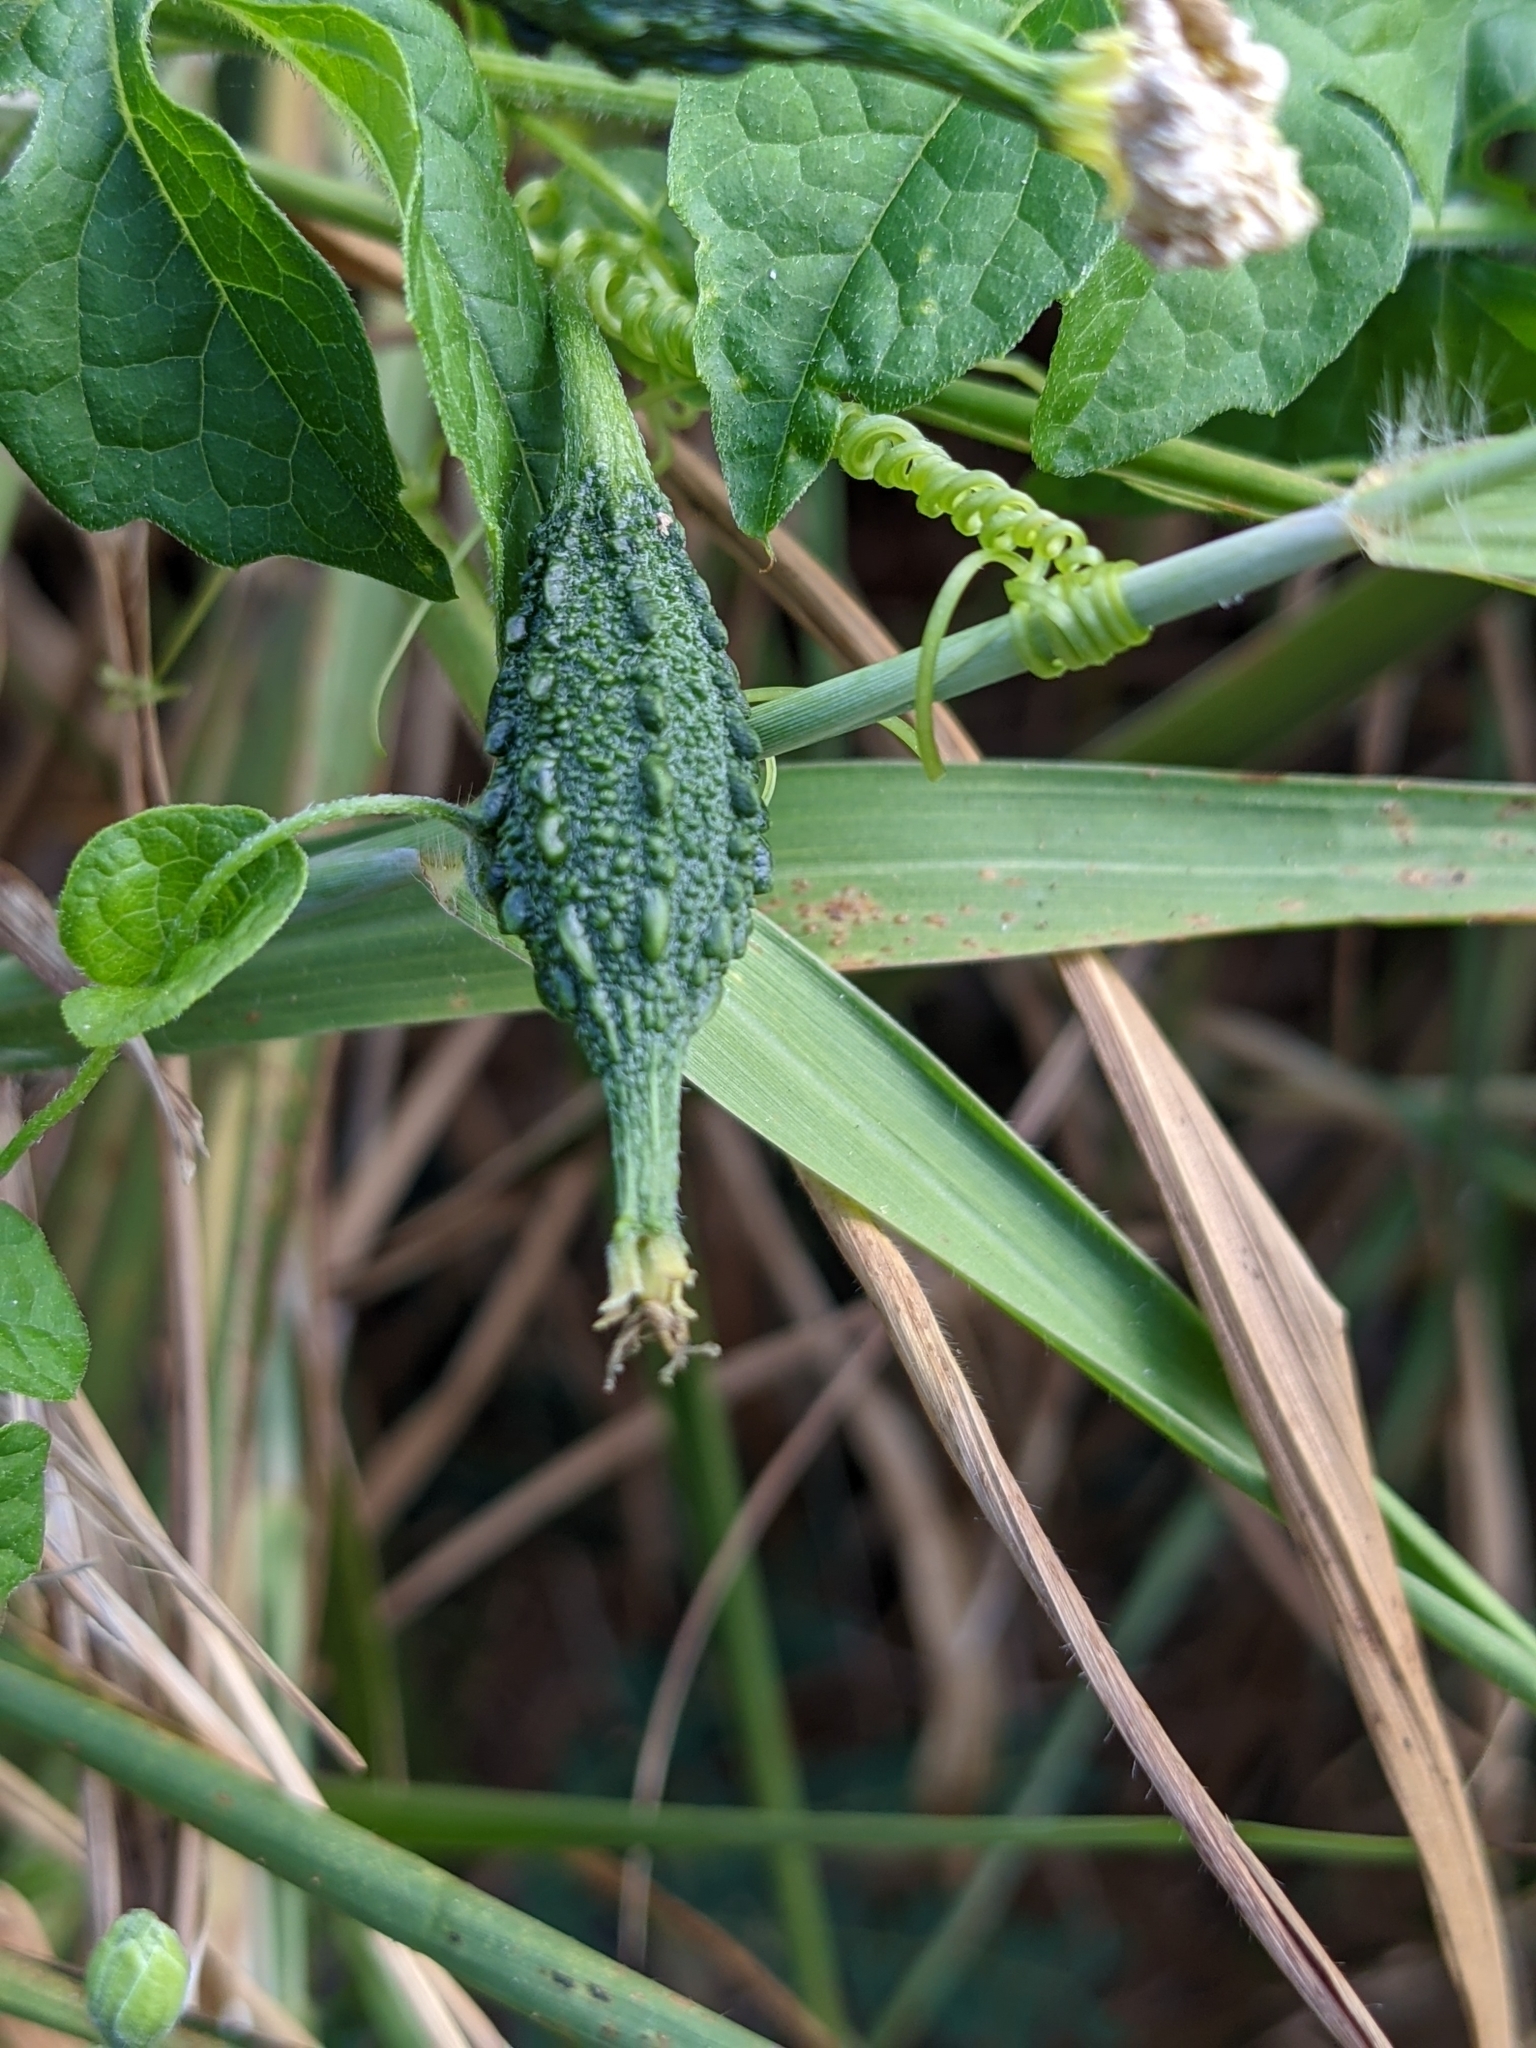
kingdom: Plantae
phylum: Tracheophyta
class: Magnoliopsida
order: Cucurbitales
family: Cucurbitaceae
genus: Momordica
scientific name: Momordica charantia
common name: Balsampear
